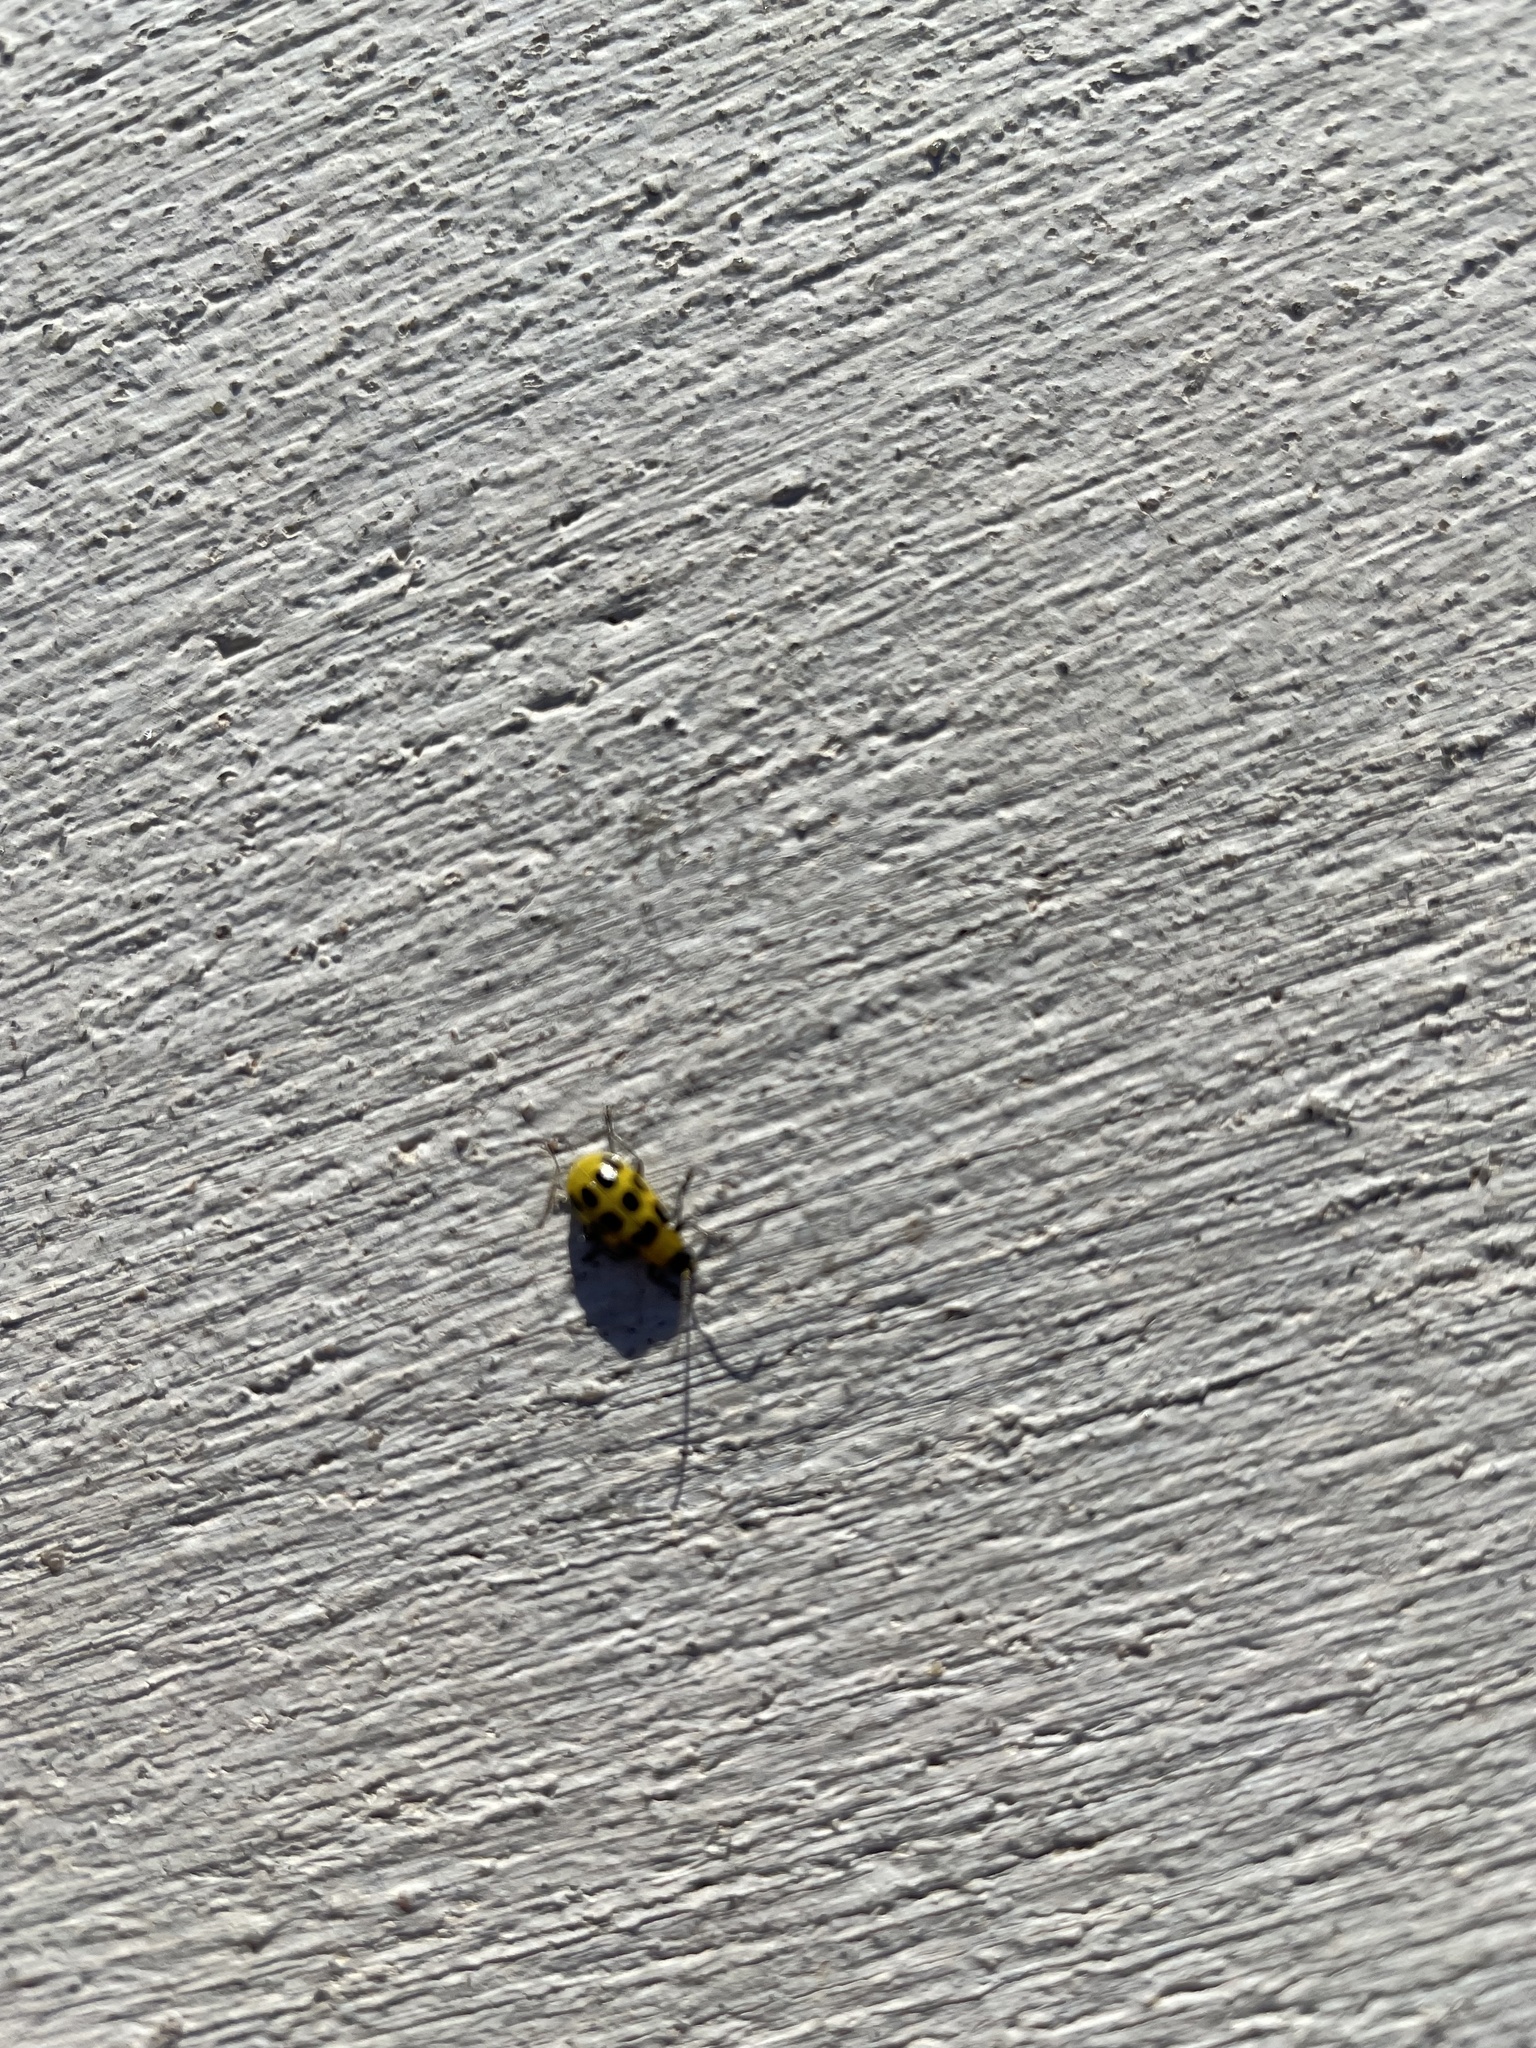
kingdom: Animalia
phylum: Arthropoda
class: Insecta
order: Coleoptera
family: Chrysomelidae
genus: Diabrotica
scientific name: Diabrotica undecimpunctata
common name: Spotted cucumber beetle
